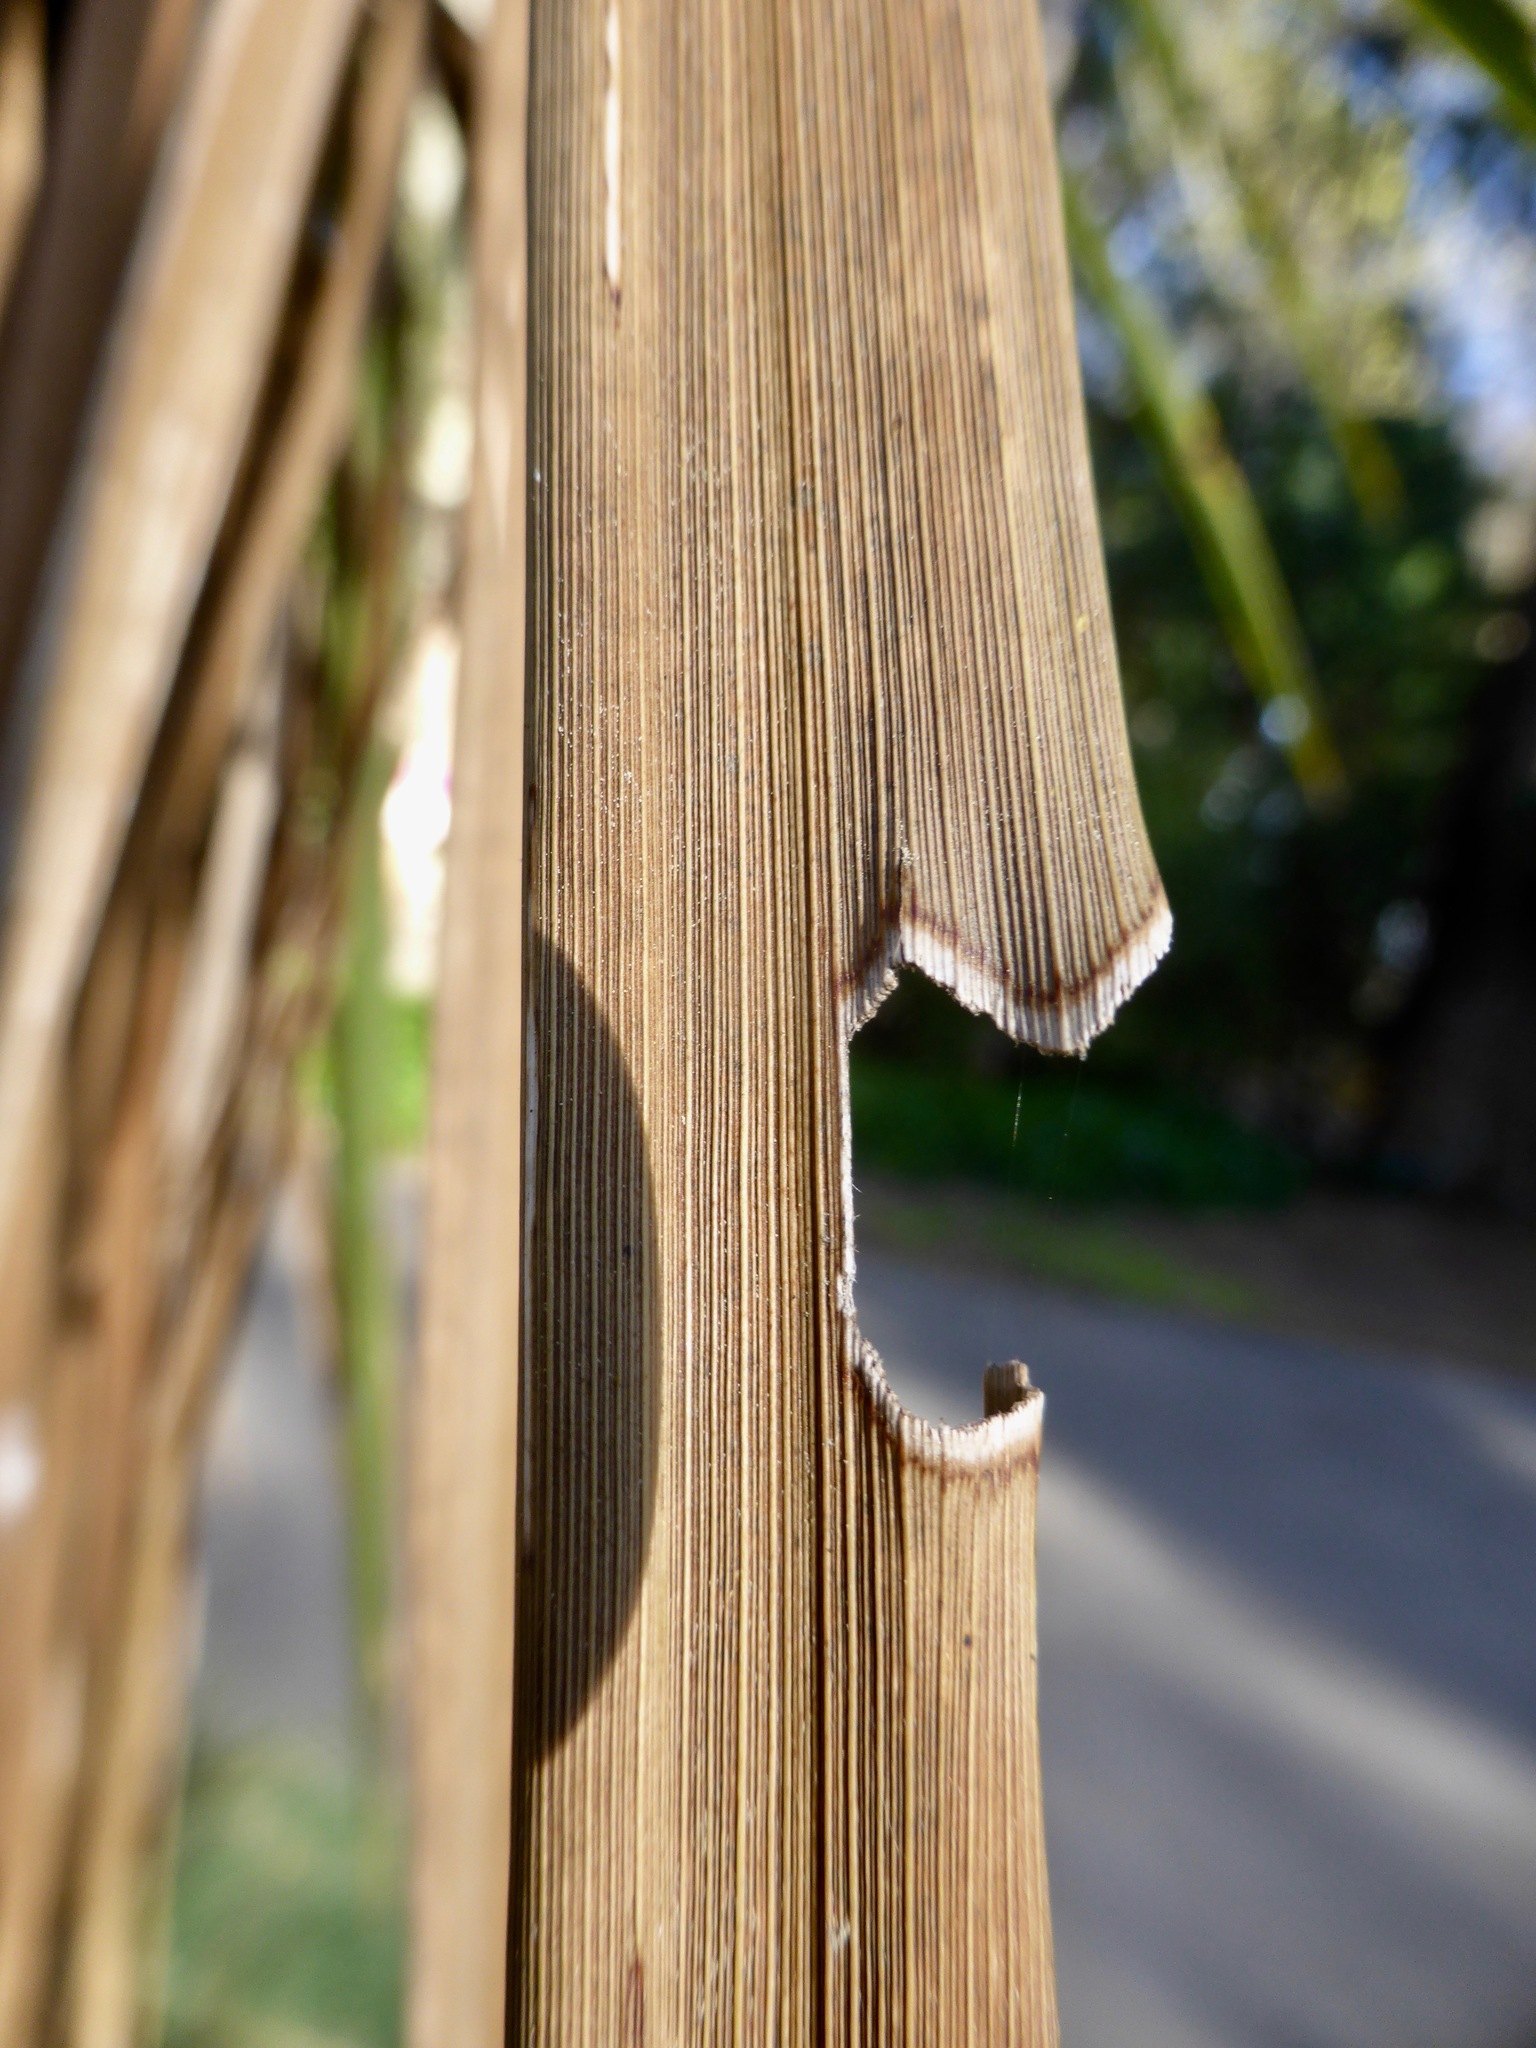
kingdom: Animalia
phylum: Arthropoda
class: Insecta
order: Lepidoptera
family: Geometridae
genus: Epiphryne
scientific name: Epiphryne verriculata
